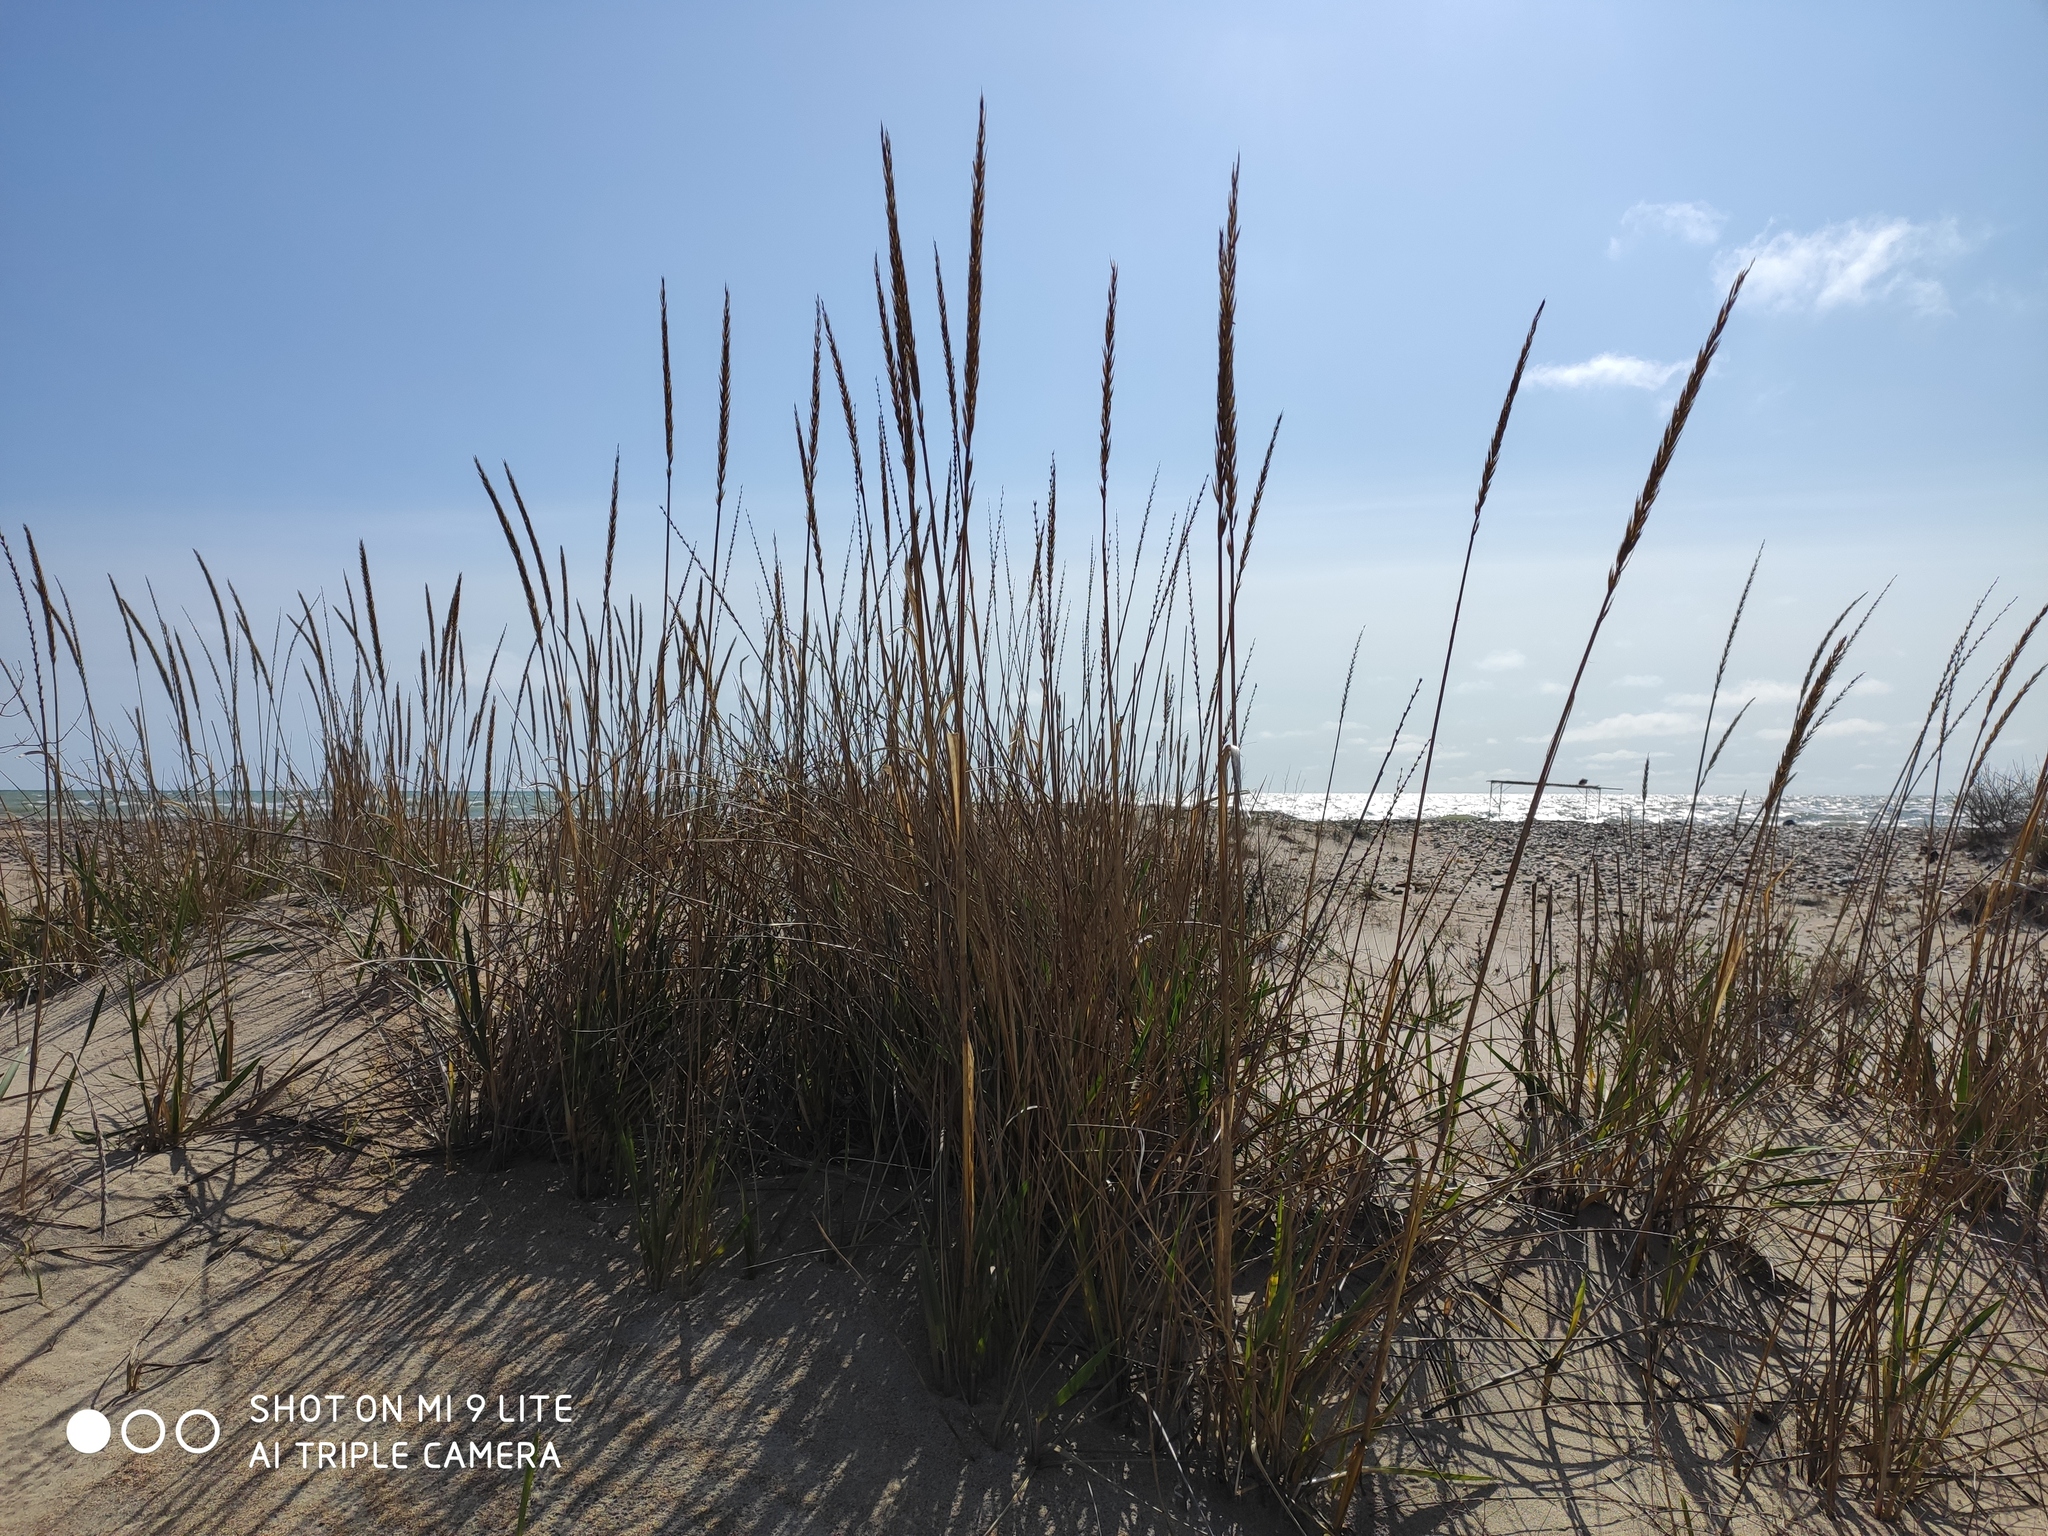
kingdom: Plantae
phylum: Tracheophyta
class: Liliopsida
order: Poales
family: Poaceae
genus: Leymus
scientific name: Leymus racemosus
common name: Mammoth wildrye
